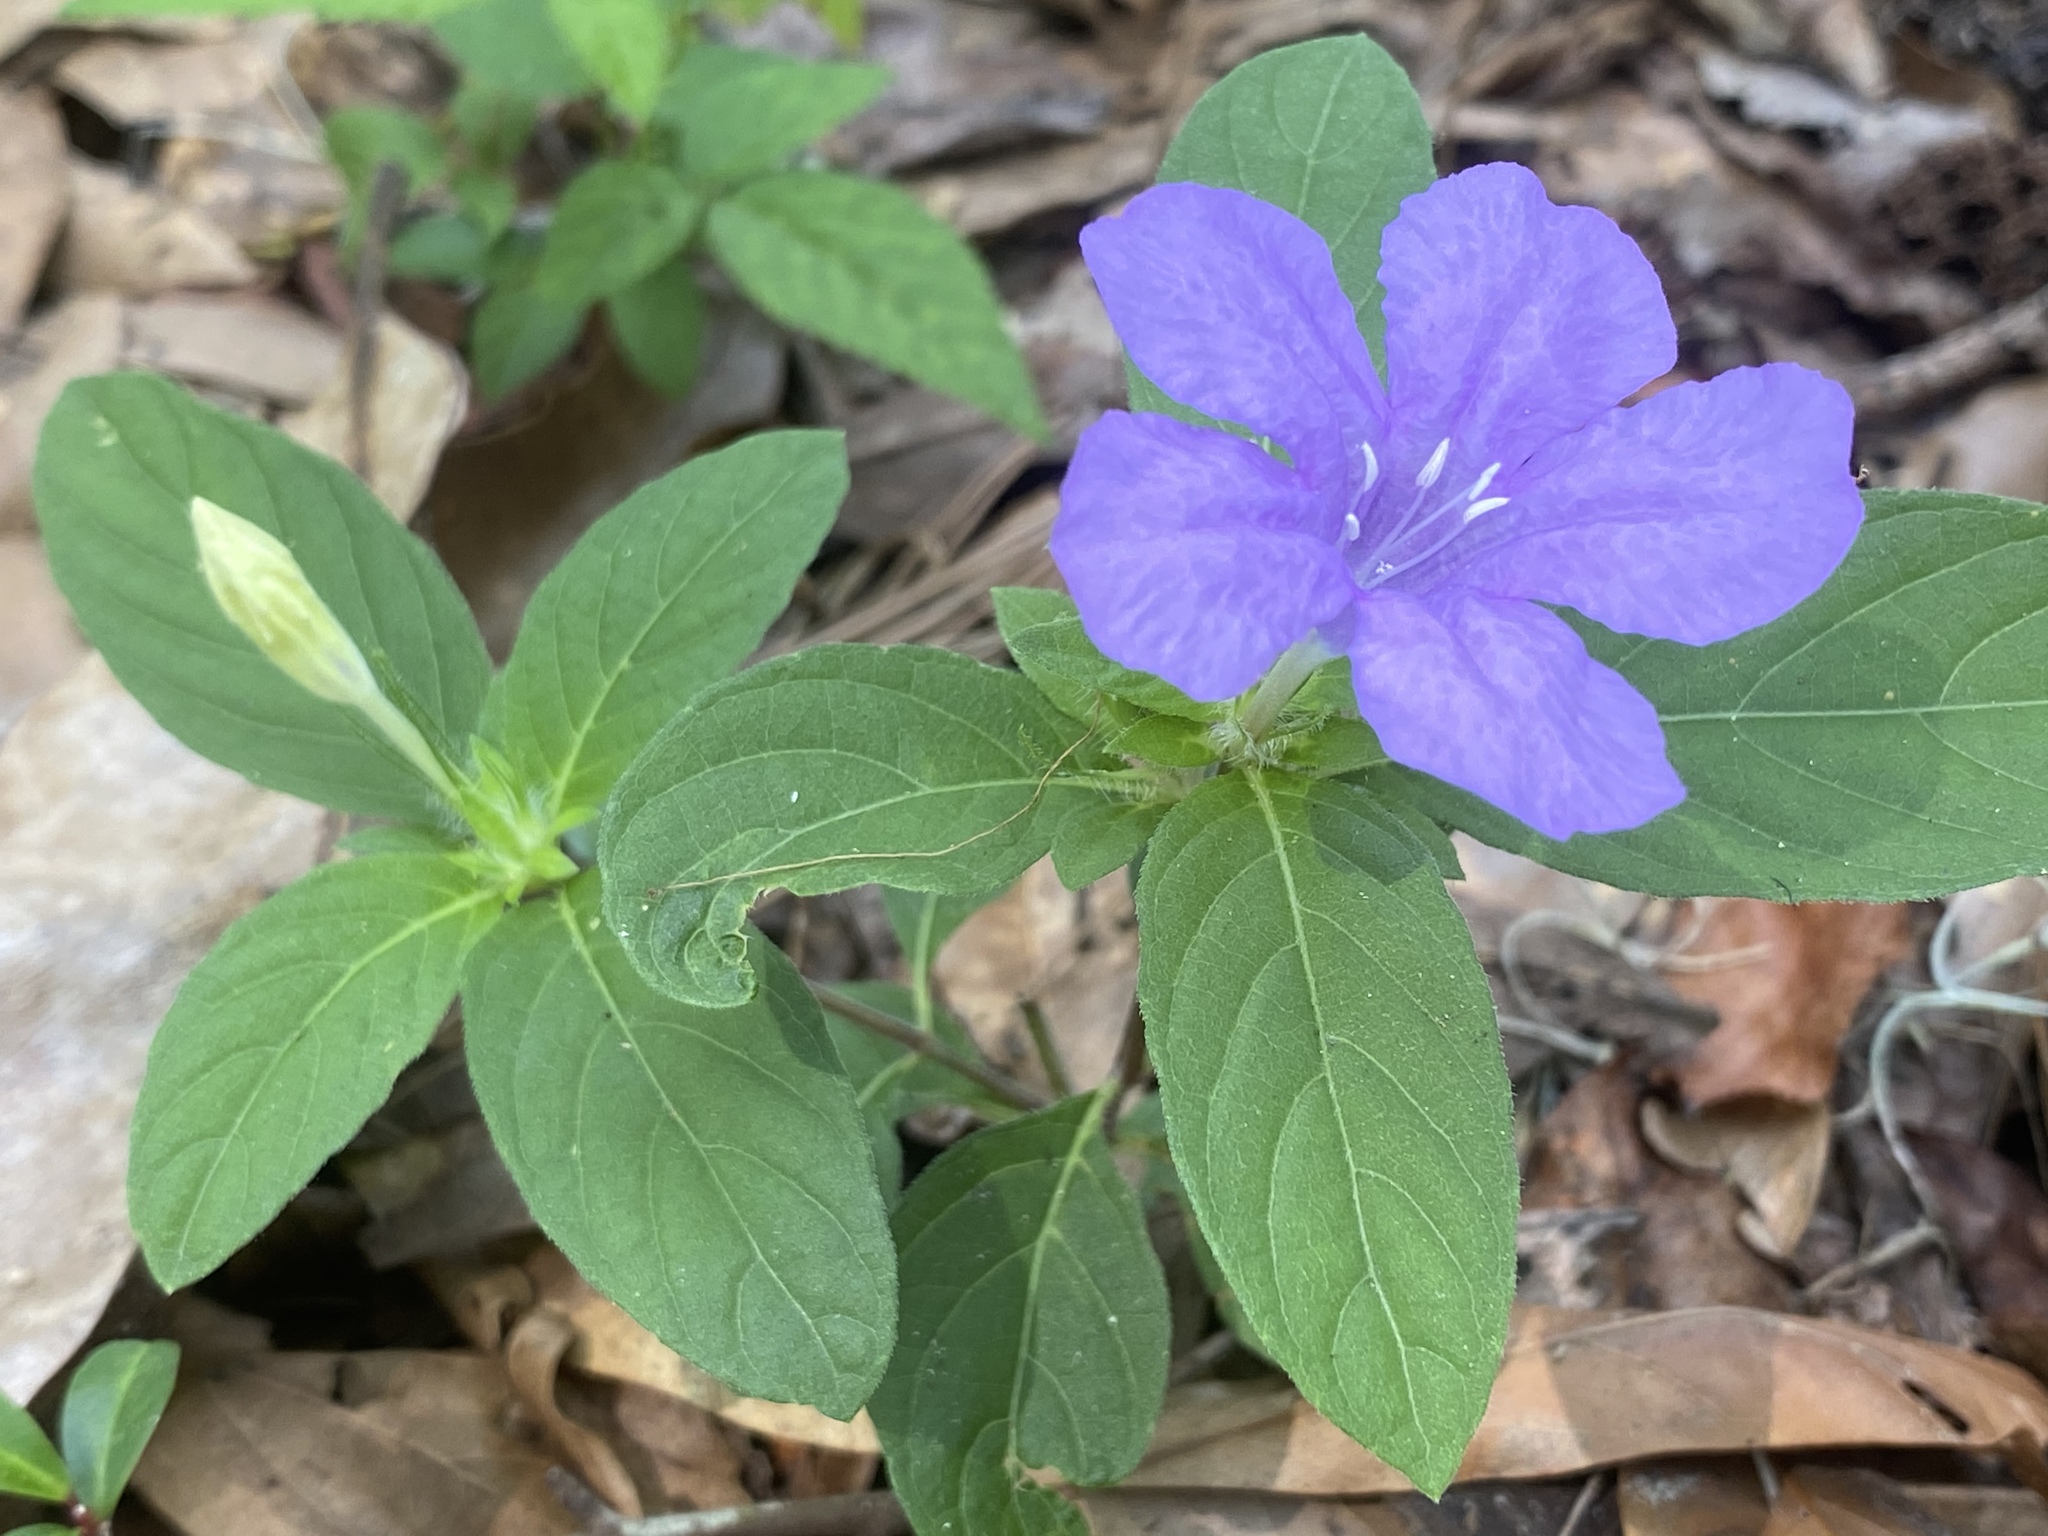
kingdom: Plantae
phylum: Tracheophyta
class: Magnoliopsida
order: Lamiales
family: Acanthaceae
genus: Ruellia
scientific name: Ruellia caroliniensis
